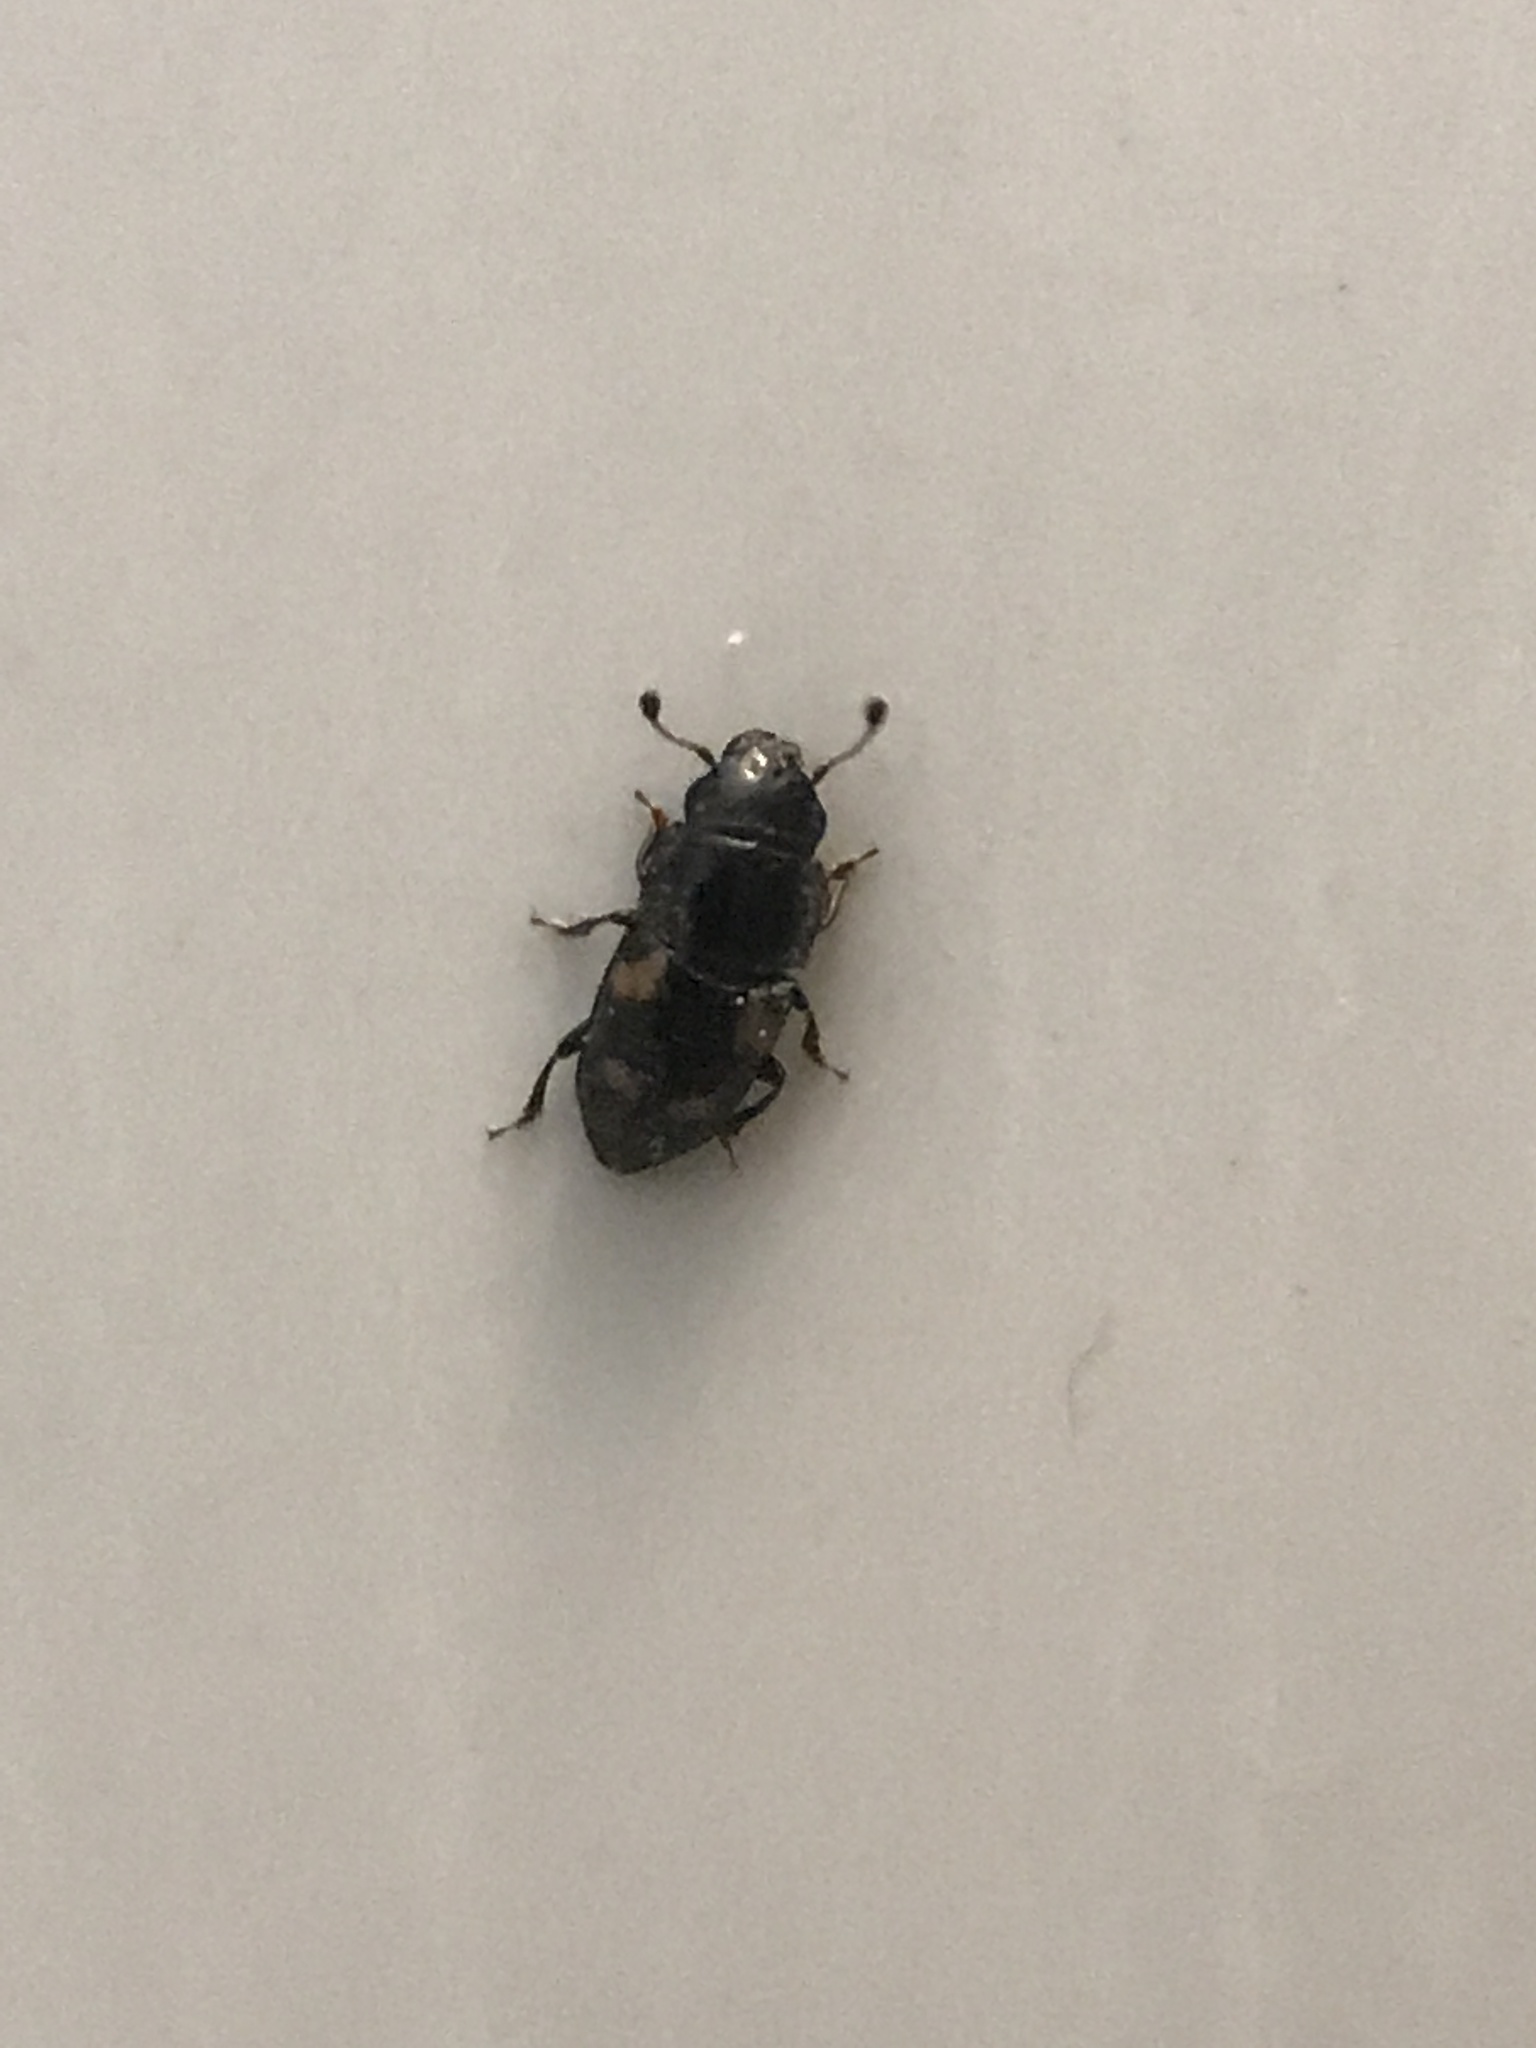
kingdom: Animalia
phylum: Arthropoda
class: Insecta
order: Coleoptera
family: Nitidulidae
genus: Glischrochilus
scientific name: Glischrochilus quadrisignatus
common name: Picnic beetle
